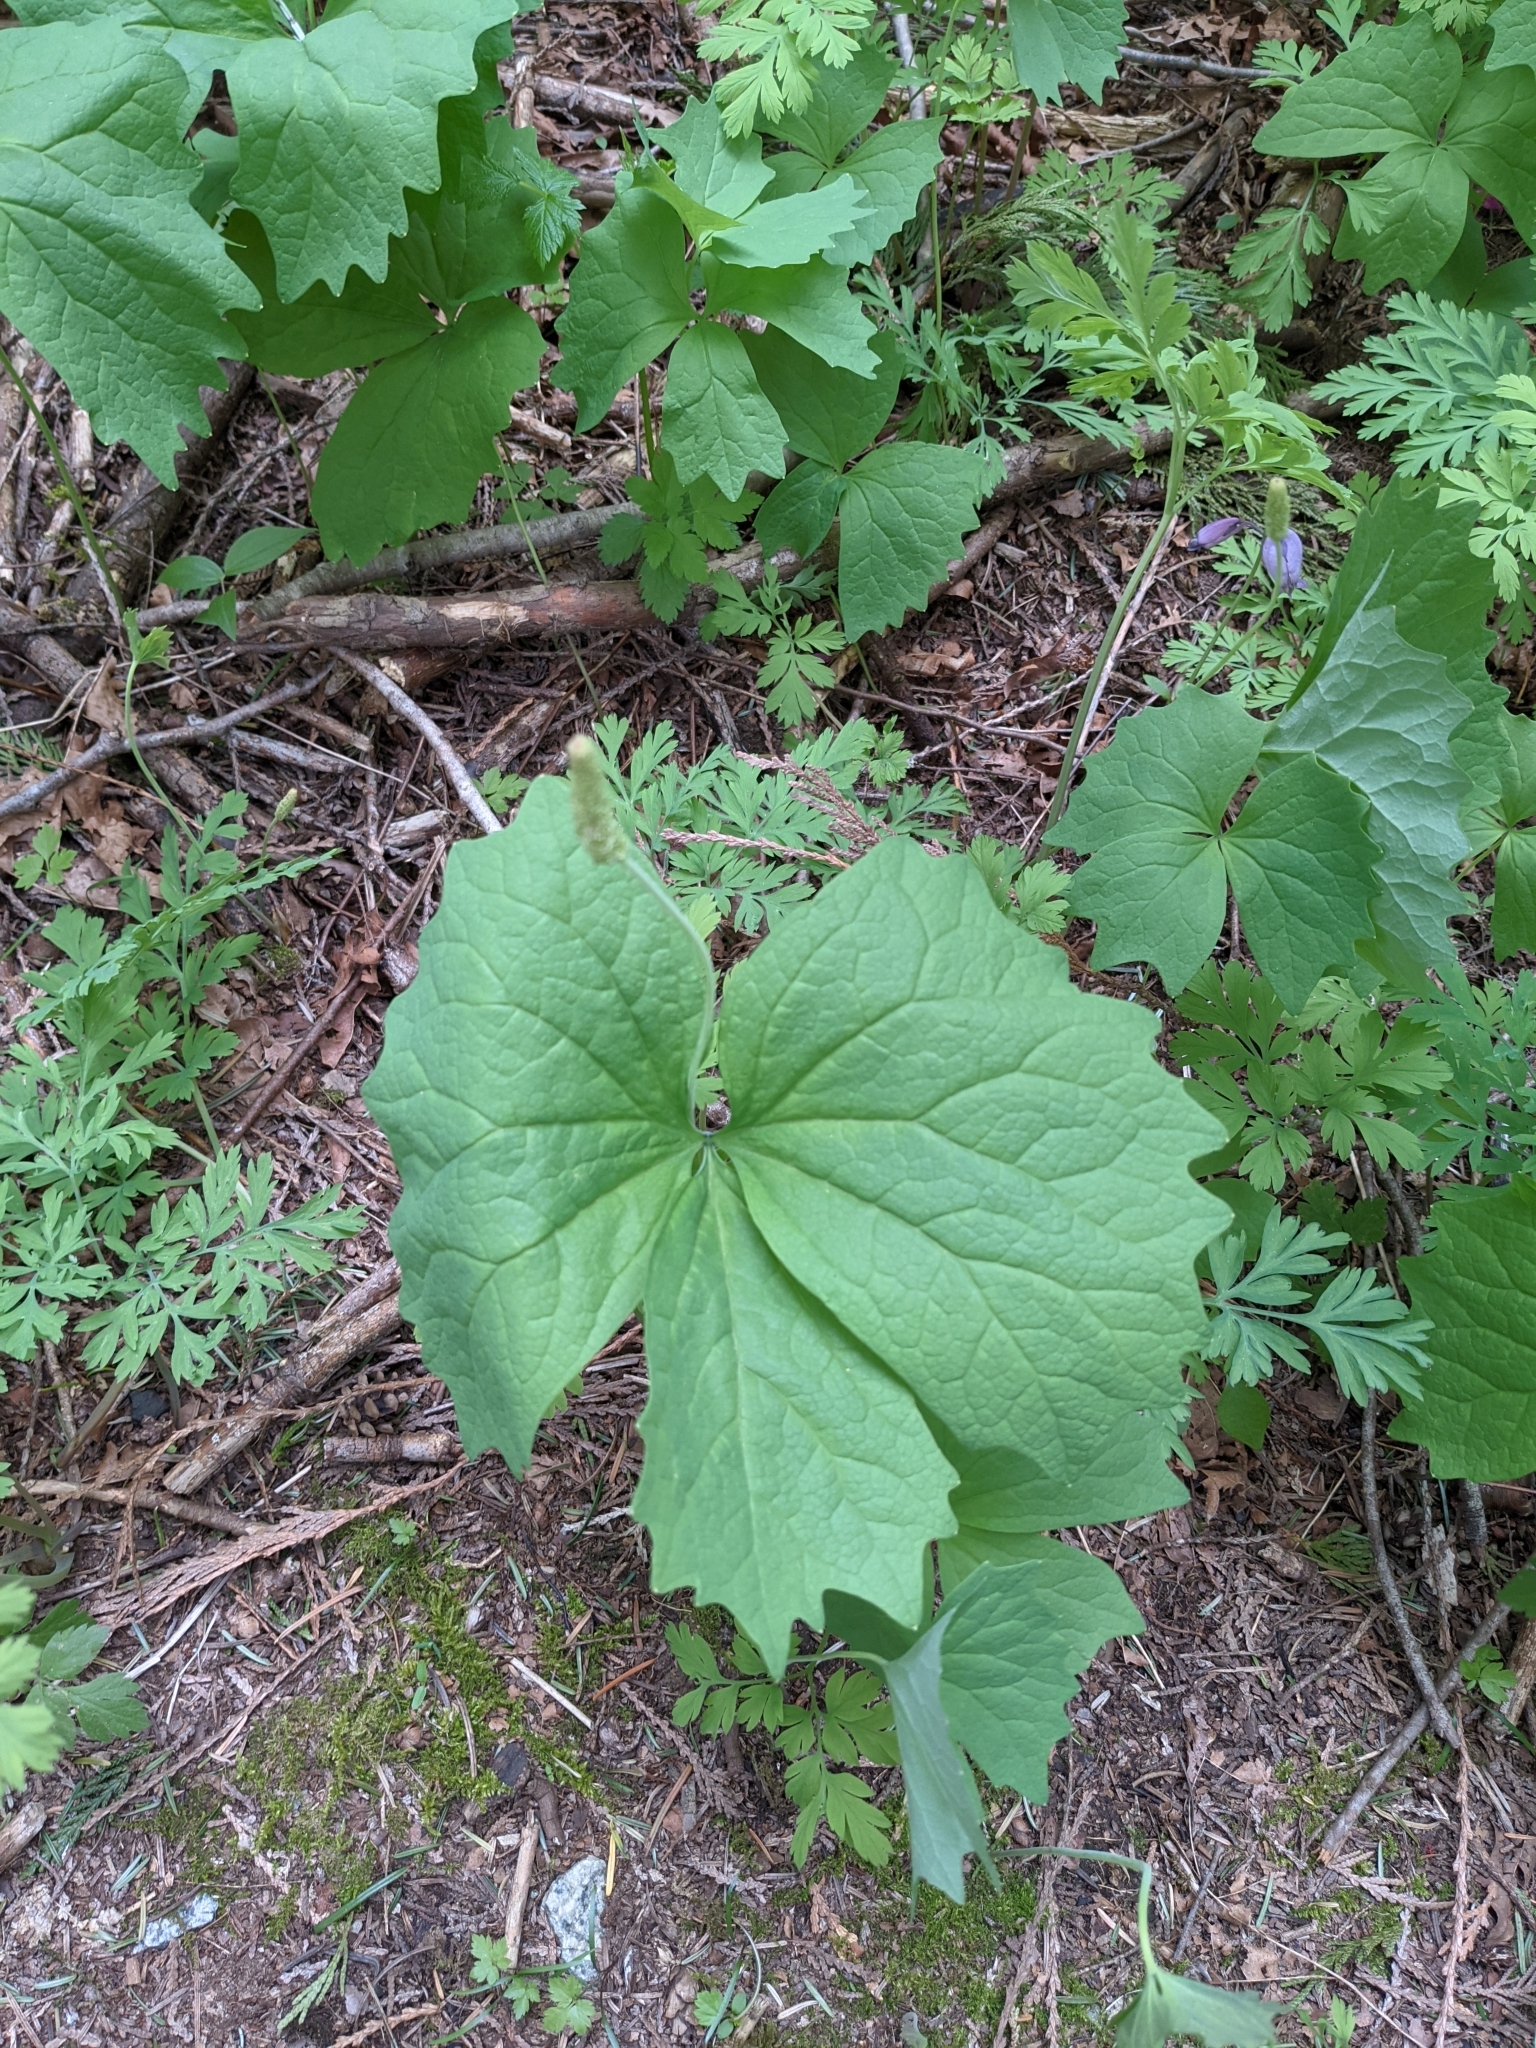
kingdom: Plantae
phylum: Tracheophyta
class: Magnoliopsida
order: Ranunculales
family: Berberidaceae
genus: Achlys
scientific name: Achlys triphylla
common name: Vanilla-leaf
